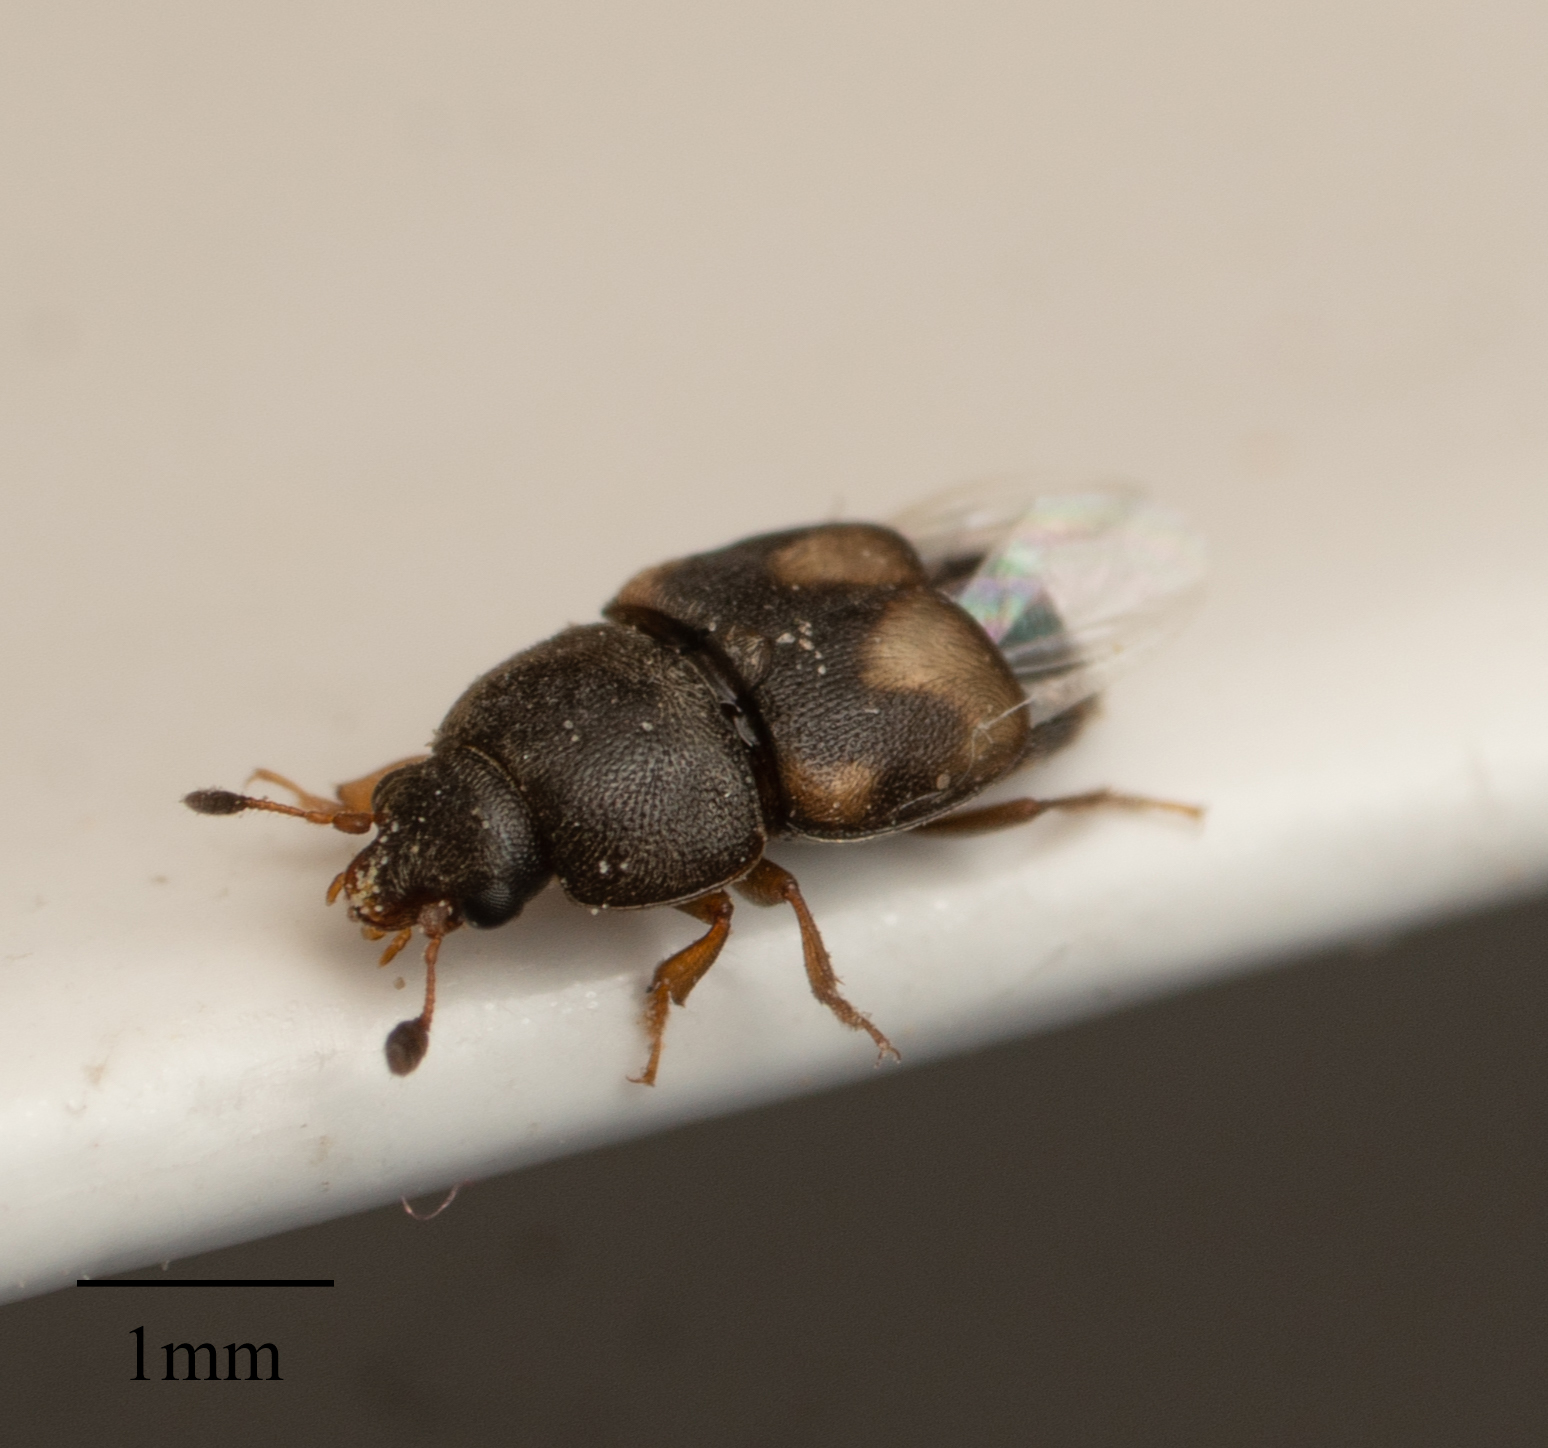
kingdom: Animalia
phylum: Arthropoda
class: Insecta
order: Coleoptera
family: Nitidulidae
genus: Carpophilus
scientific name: Carpophilus hemipterus
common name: Dried fruit beetle
